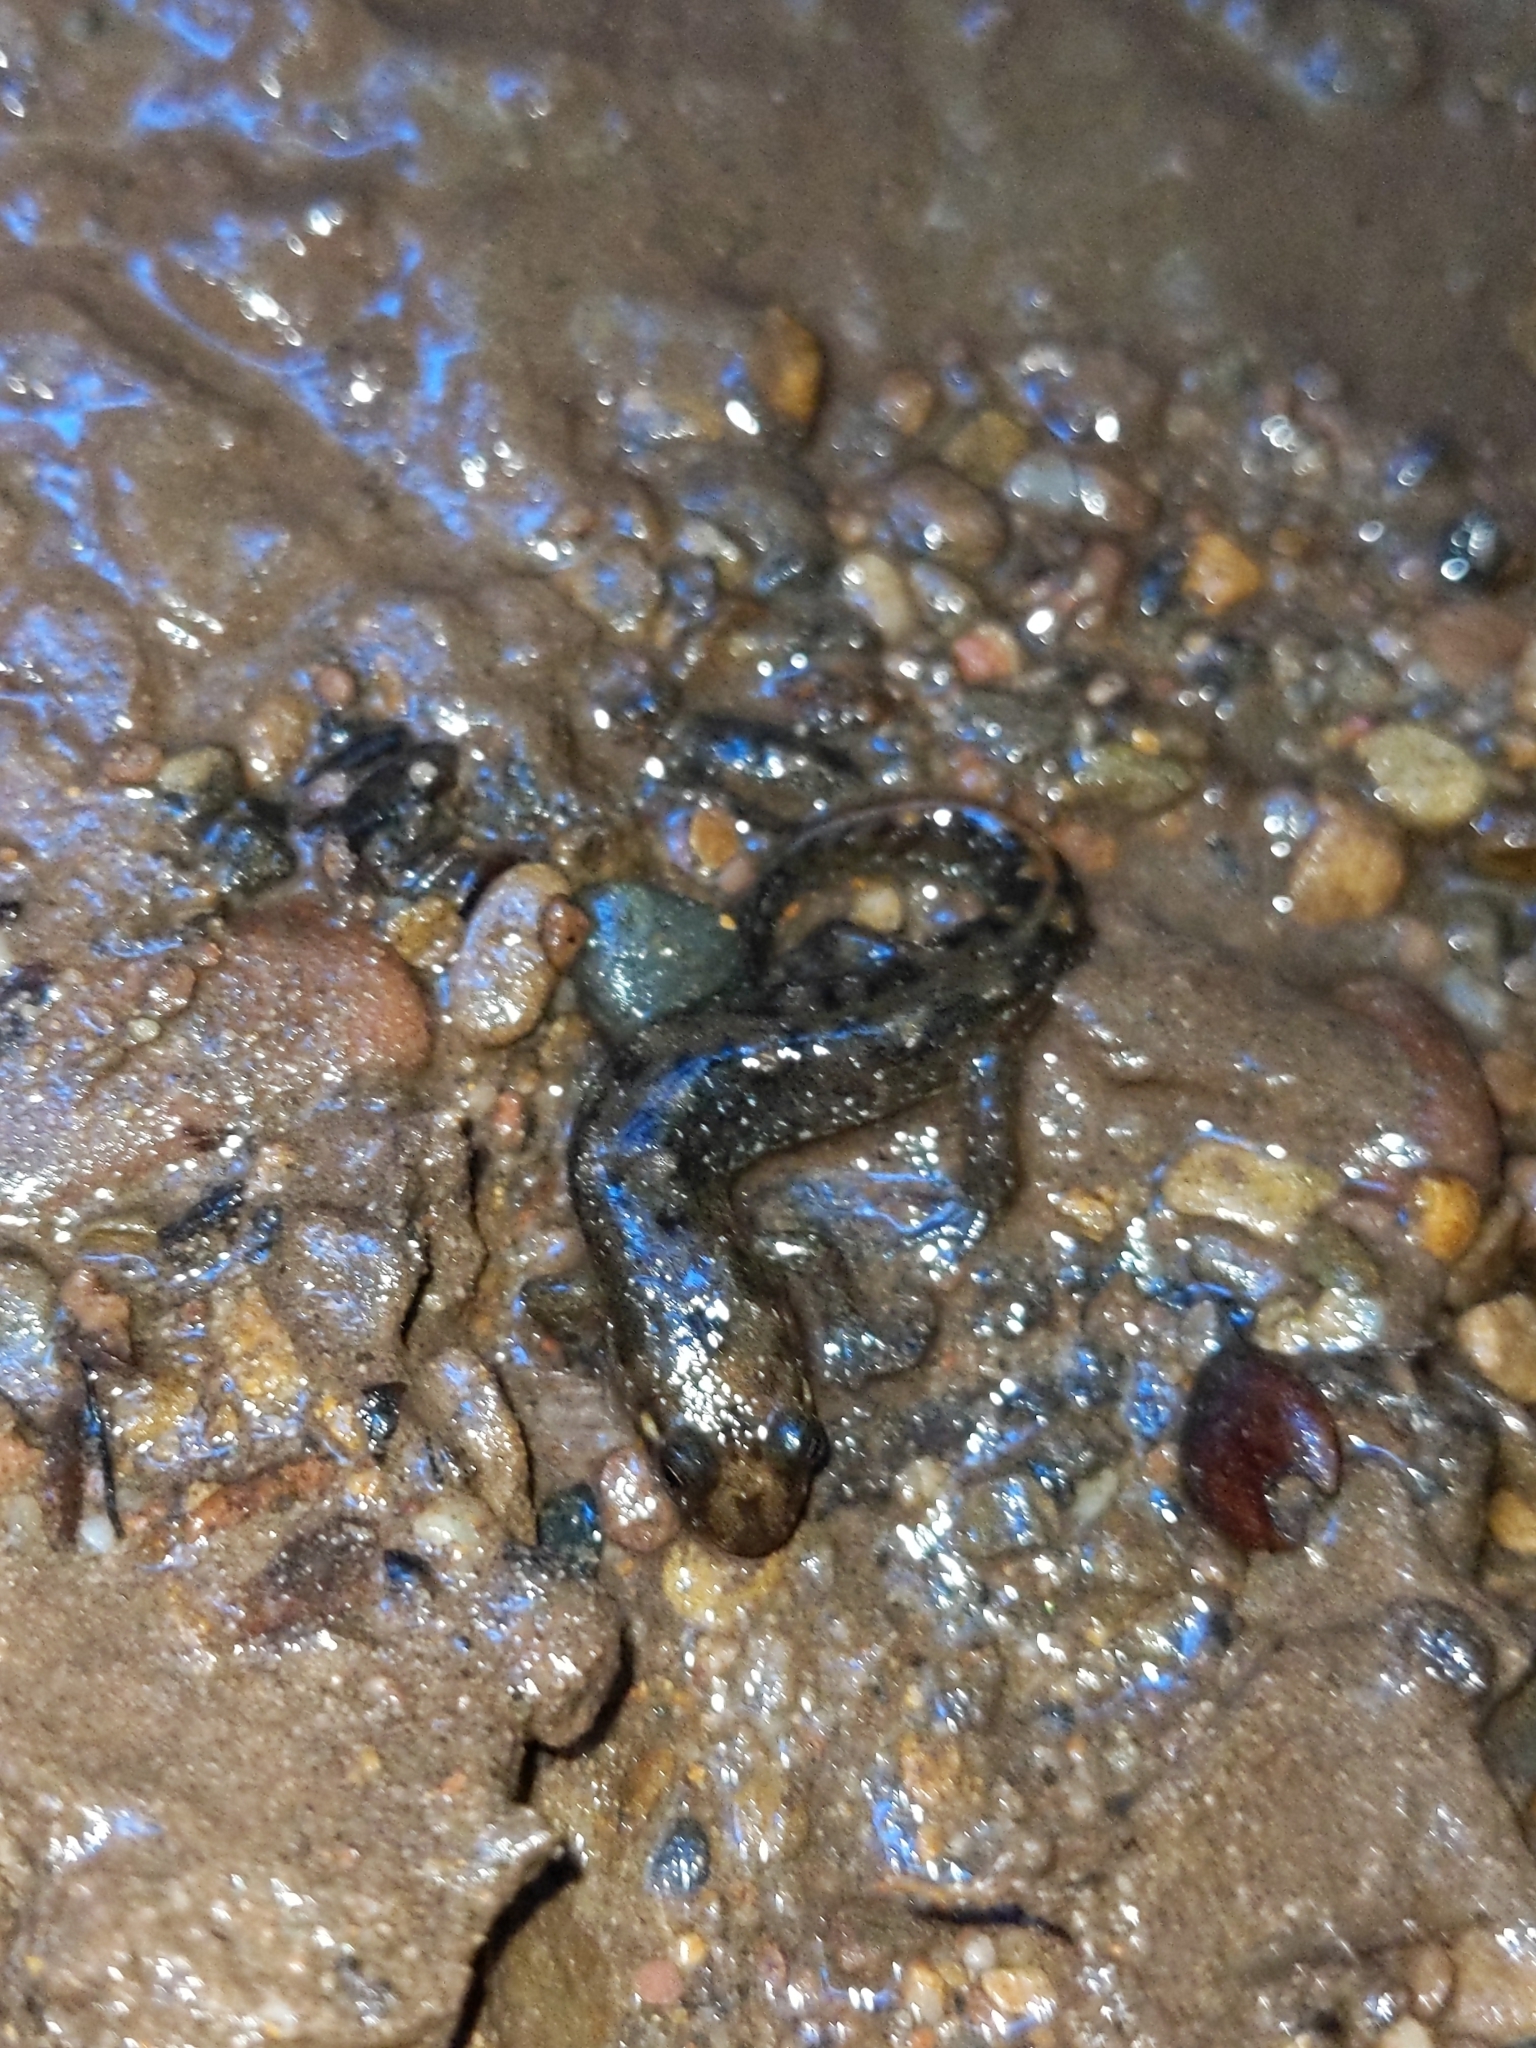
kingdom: Animalia
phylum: Chordata
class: Amphibia
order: Caudata
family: Plethodontidae
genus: Desmognathus
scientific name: Desmognathus monticola
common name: Seal salamander
